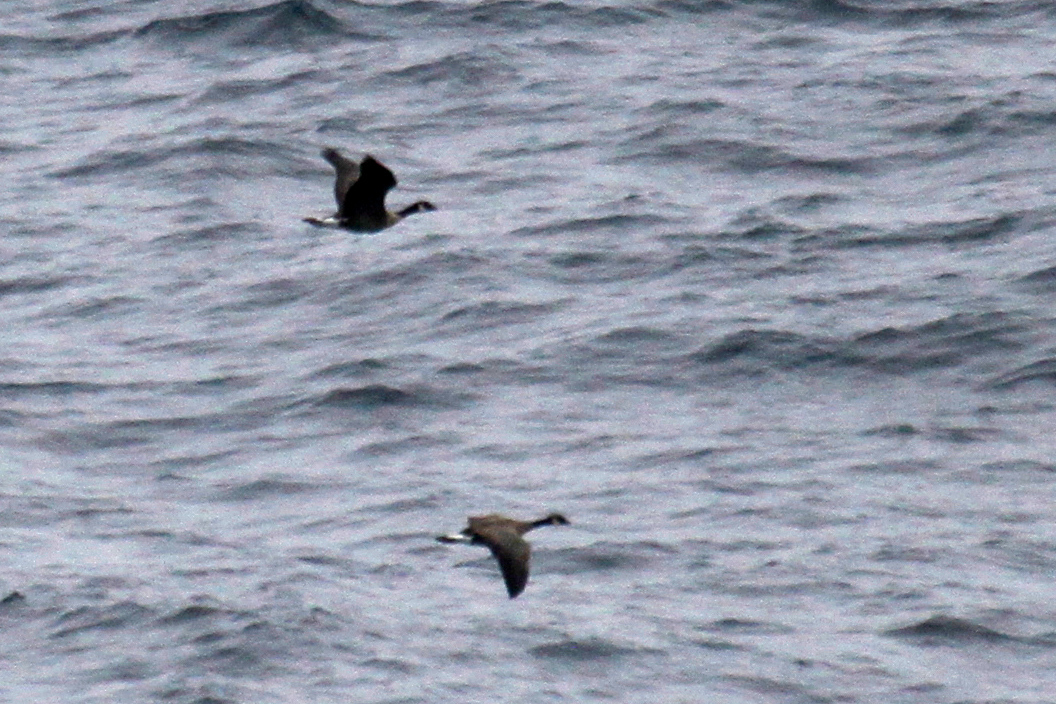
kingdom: Animalia
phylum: Chordata
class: Aves
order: Anseriformes
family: Anatidae
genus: Branta
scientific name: Branta hutchinsii
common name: Cackling goose
